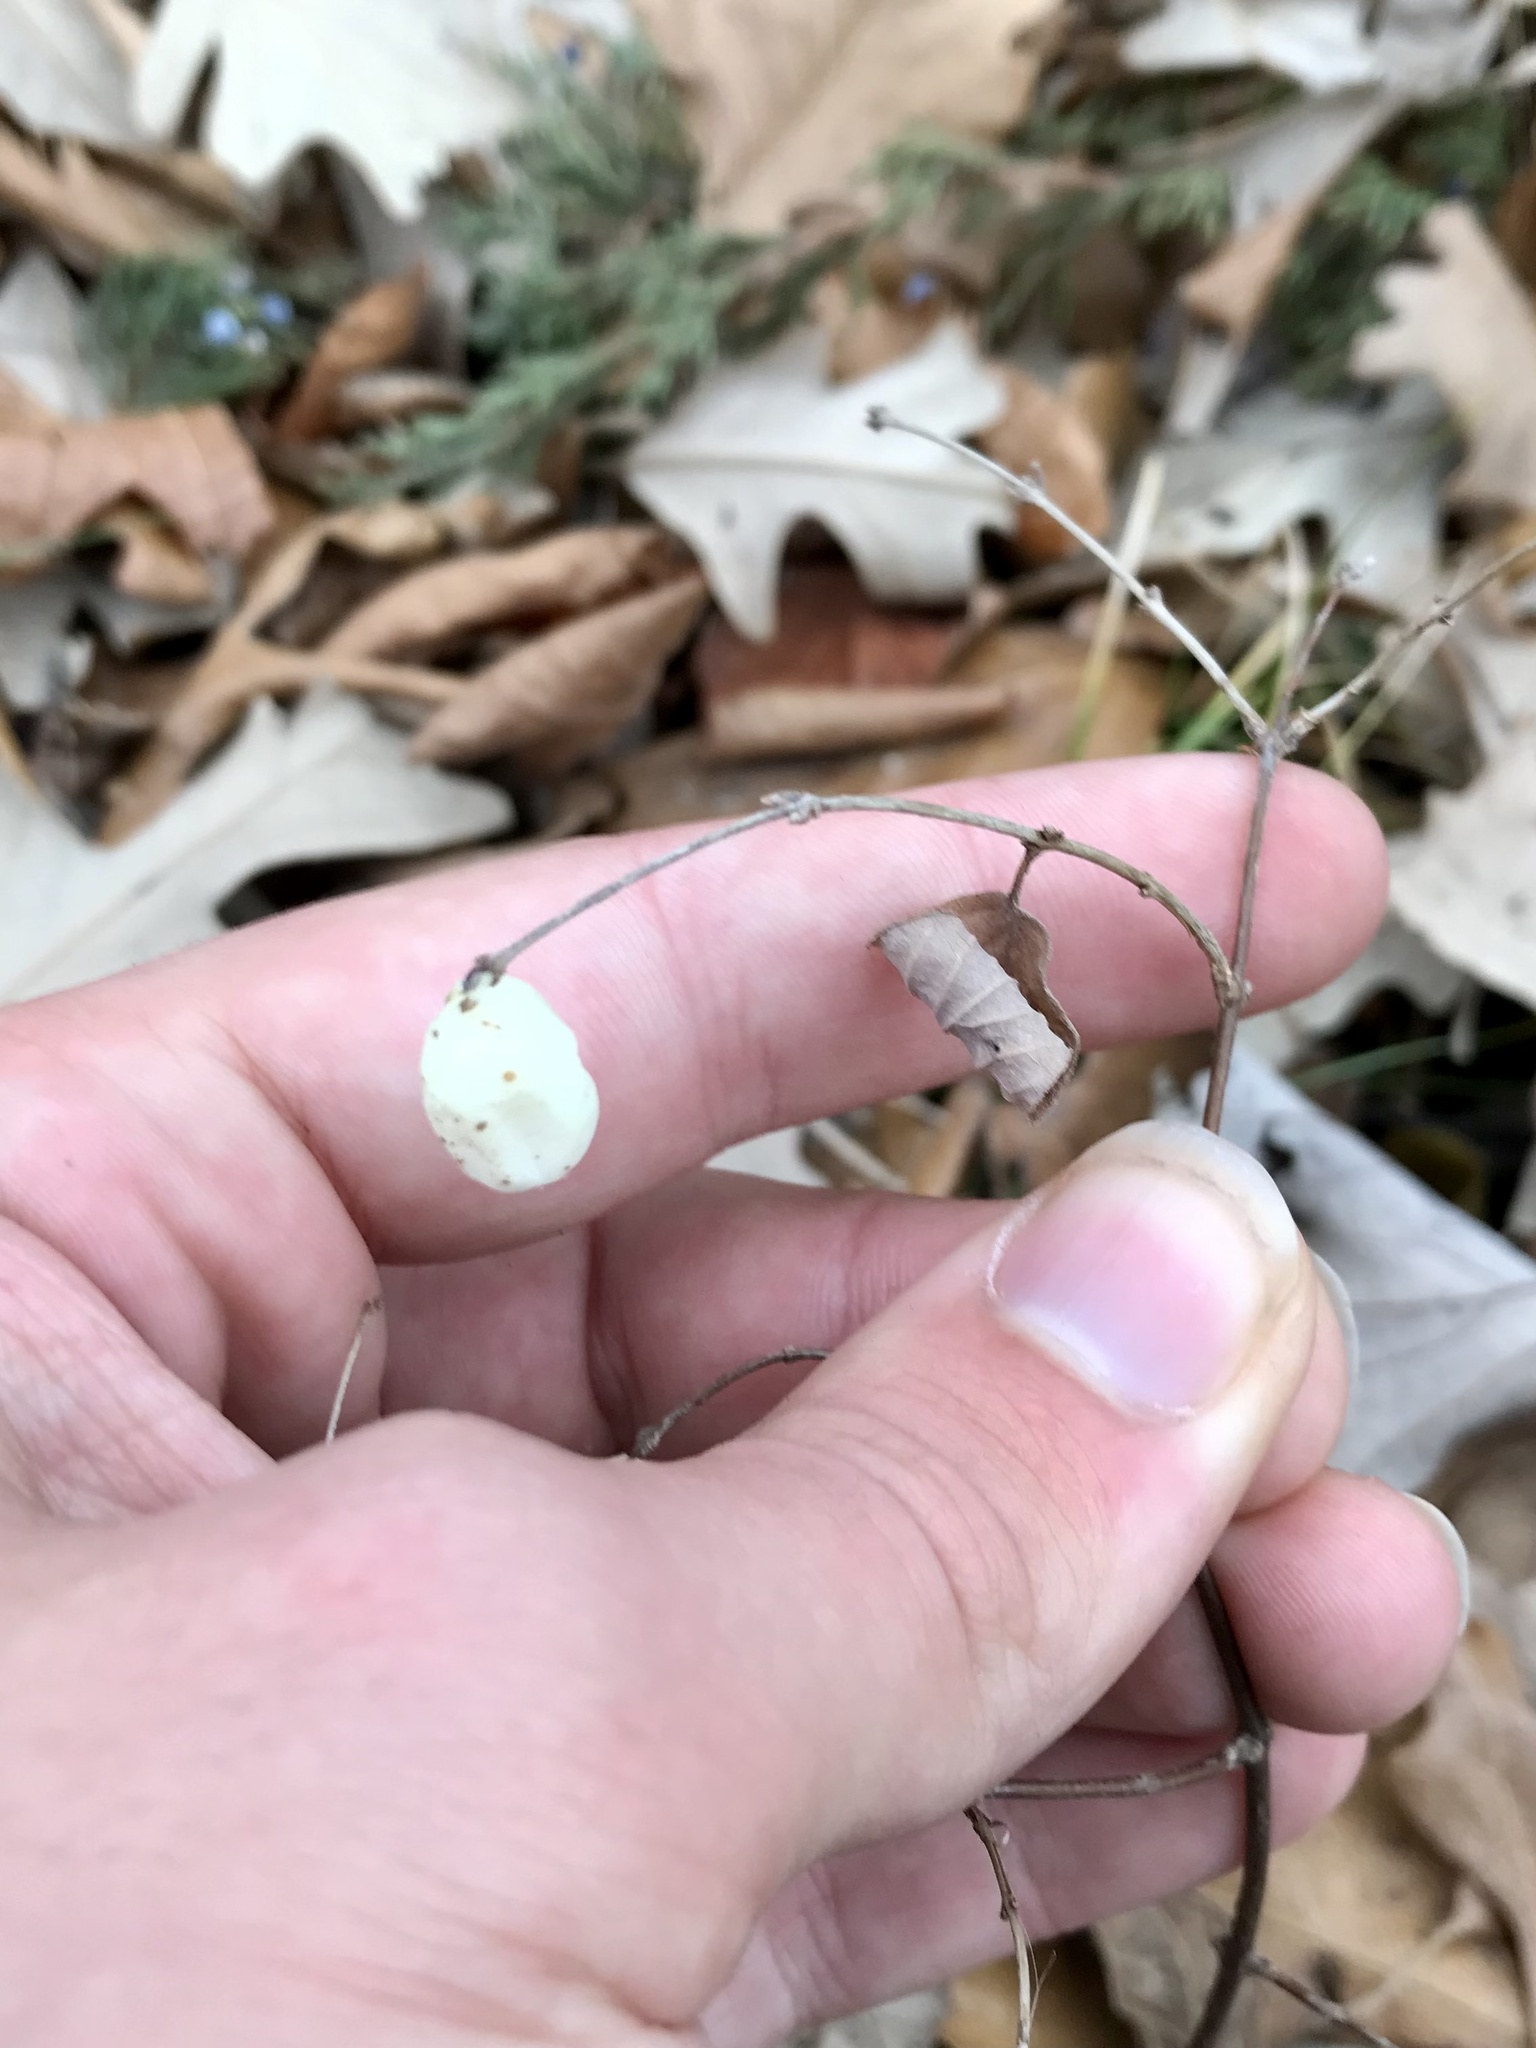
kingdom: Plantae
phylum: Tracheophyta
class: Magnoliopsida
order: Dipsacales
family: Caprifoliaceae
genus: Symphoricarpos
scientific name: Symphoricarpos albus
